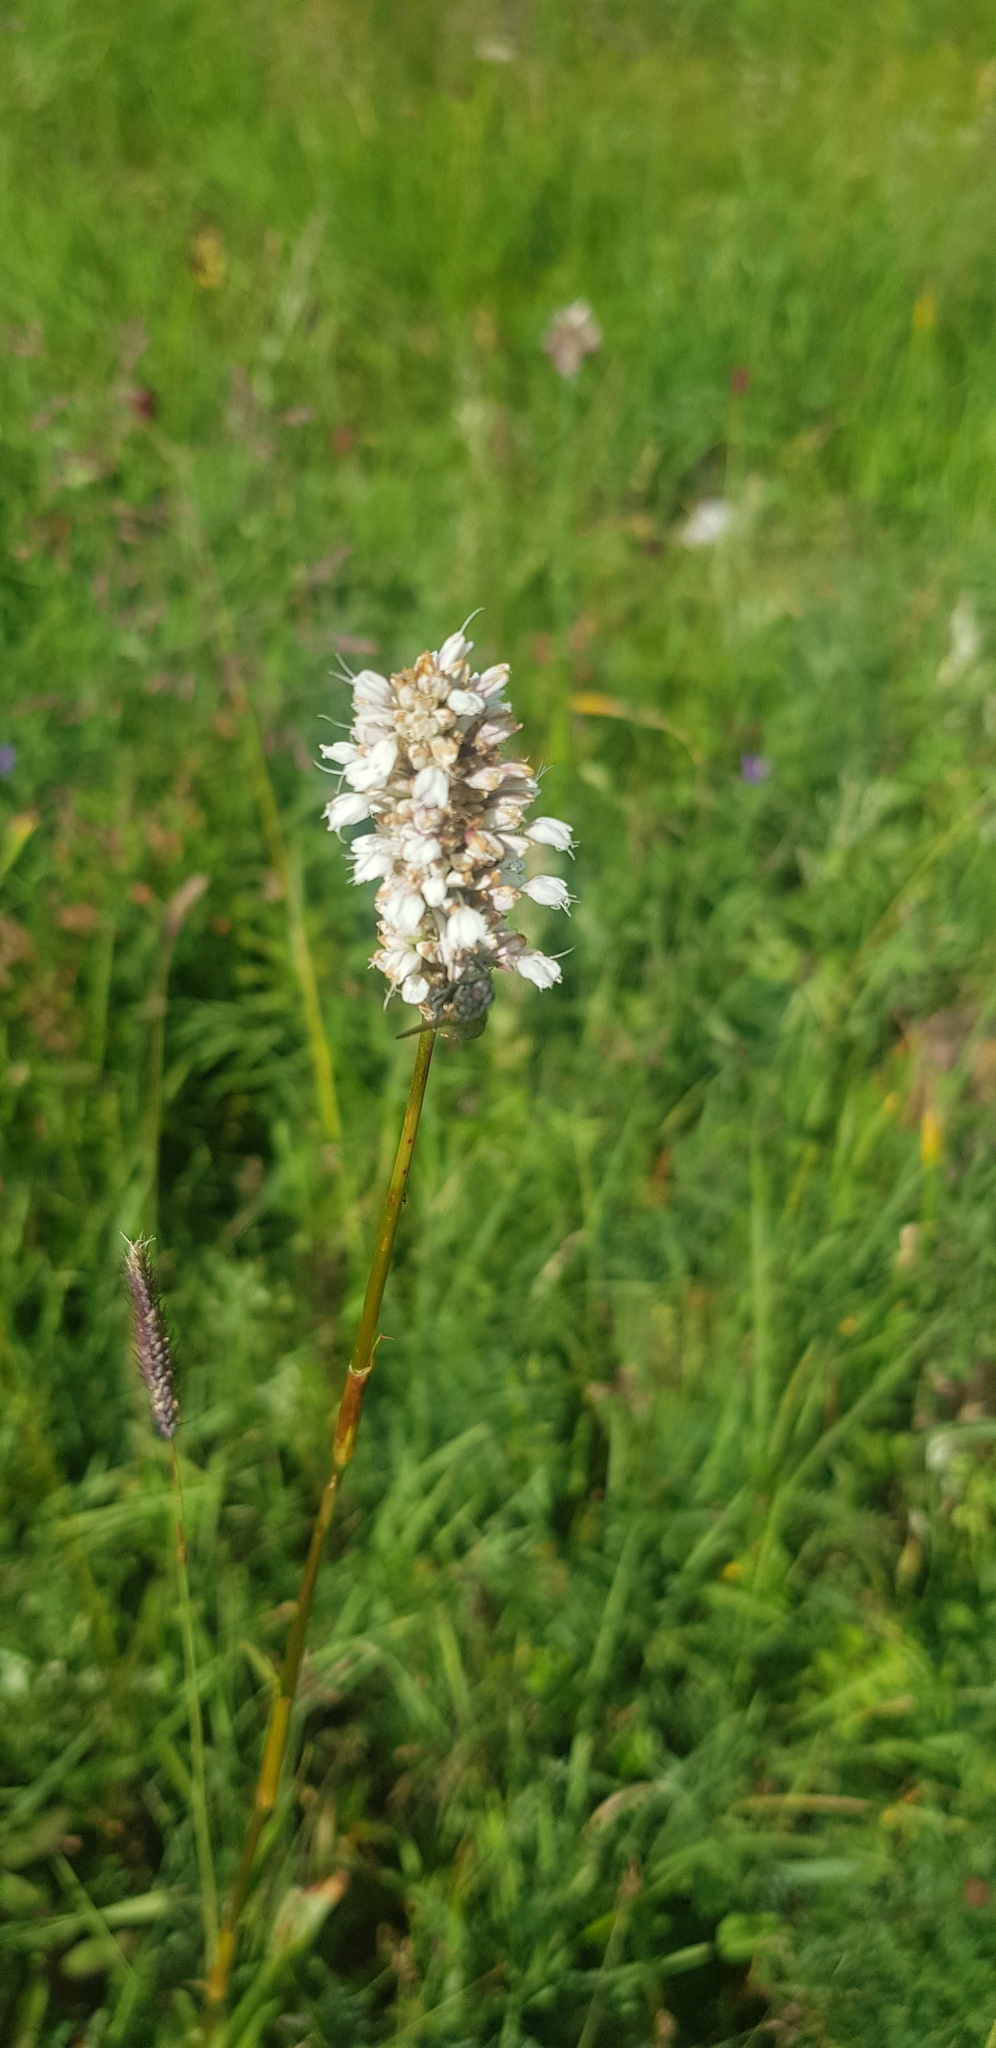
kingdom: Plantae
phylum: Tracheophyta
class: Magnoliopsida
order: Caryophyllales
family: Polygonaceae
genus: Bistorta
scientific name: Bistorta vivipara
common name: Alpine bistort
